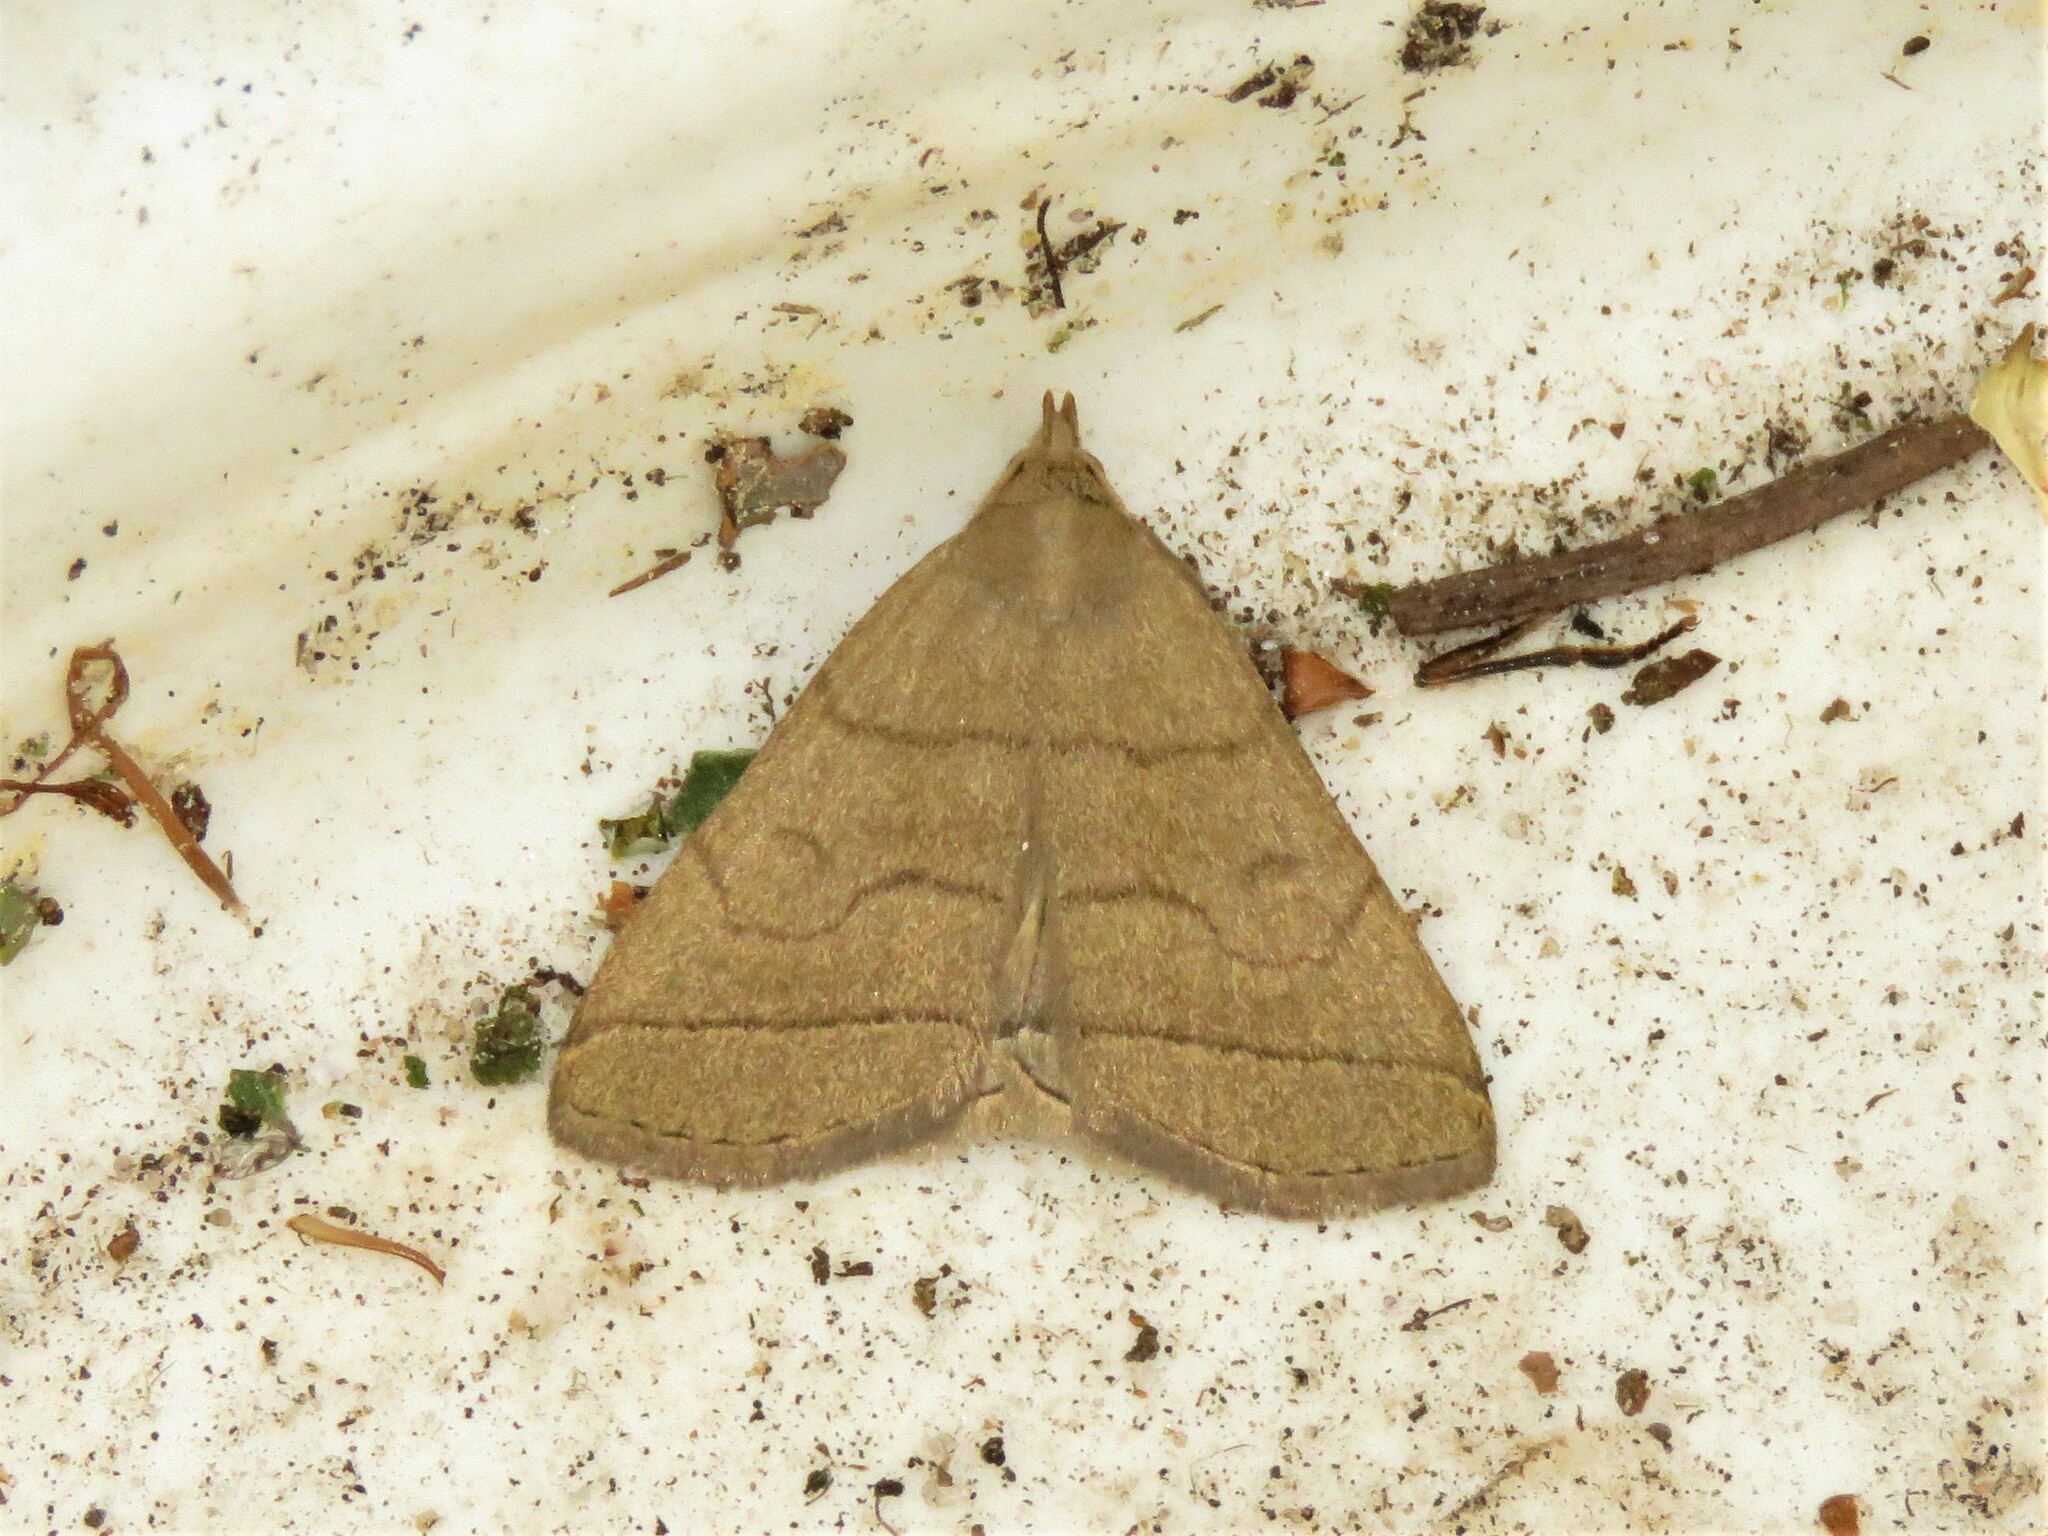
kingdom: Animalia
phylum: Arthropoda
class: Insecta
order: Lepidoptera
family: Erebidae
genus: Herminia
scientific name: Herminia tarsipennalis
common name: Fan-foot
